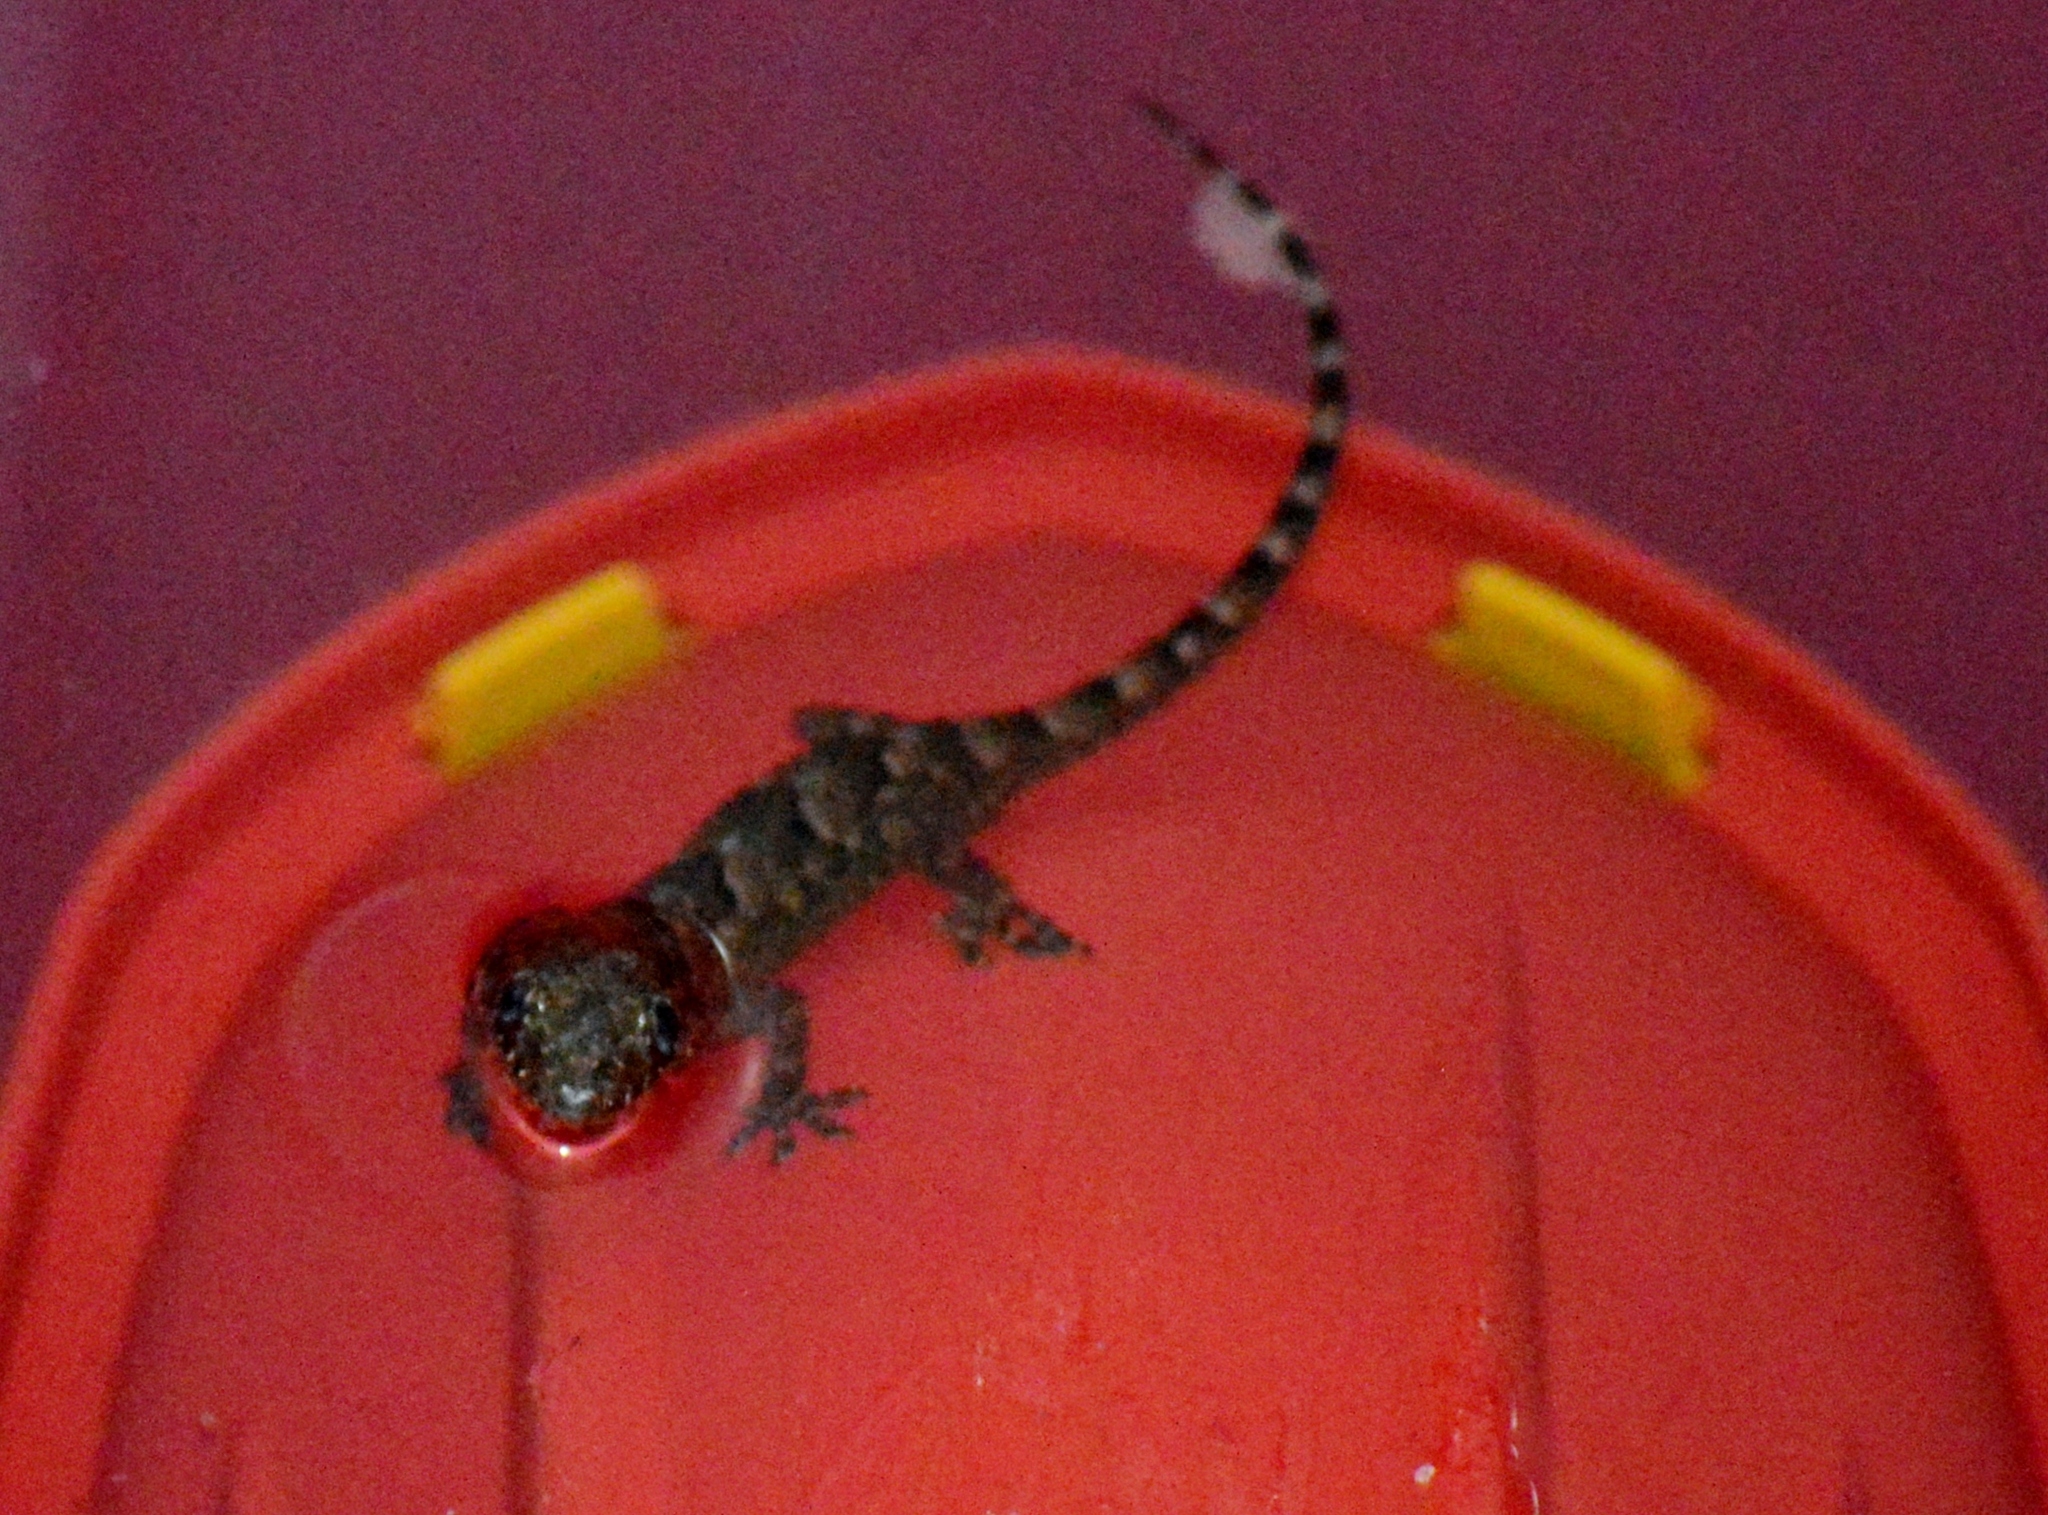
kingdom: Animalia
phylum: Chordata
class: Squamata
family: Gekkonidae
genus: Hemidactylus
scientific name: Hemidactylus mabouia
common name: House gecko
